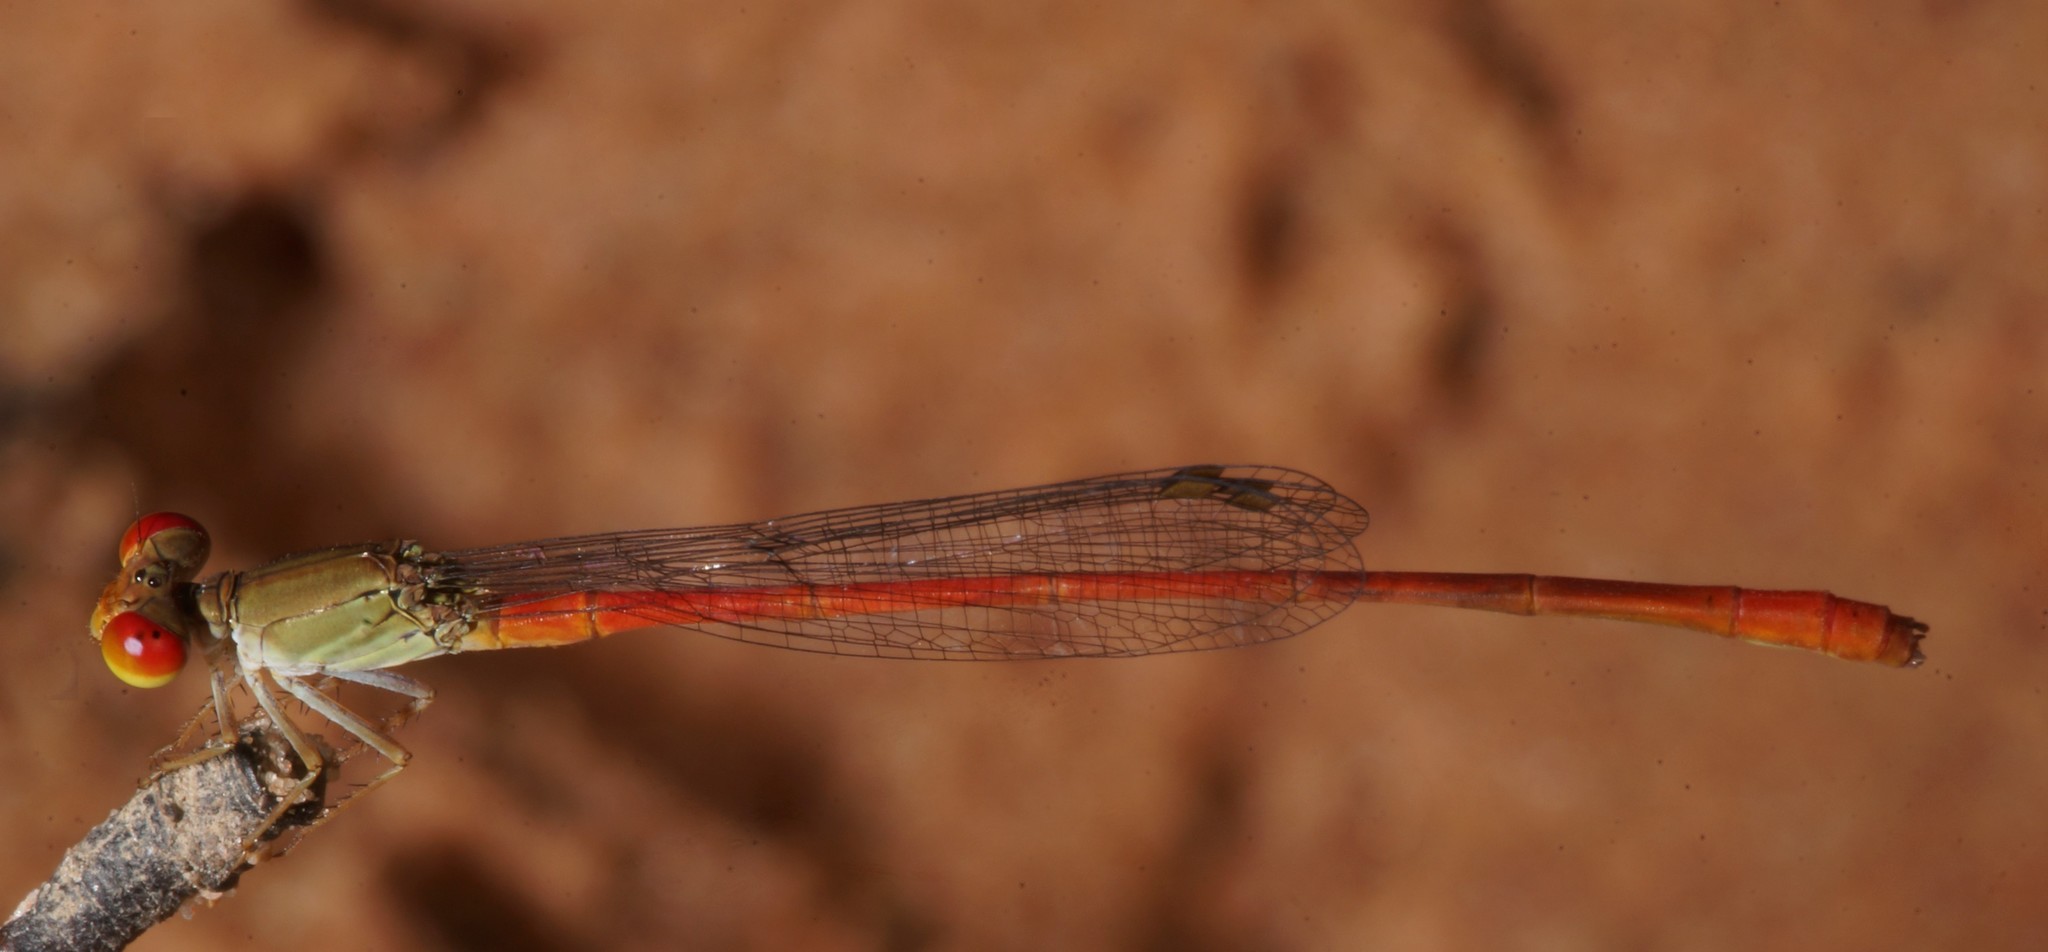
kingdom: Animalia
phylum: Arthropoda
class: Insecta
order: Odonata
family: Coenagrionidae
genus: Ceriagrion
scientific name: Ceriagrion praetermissum
